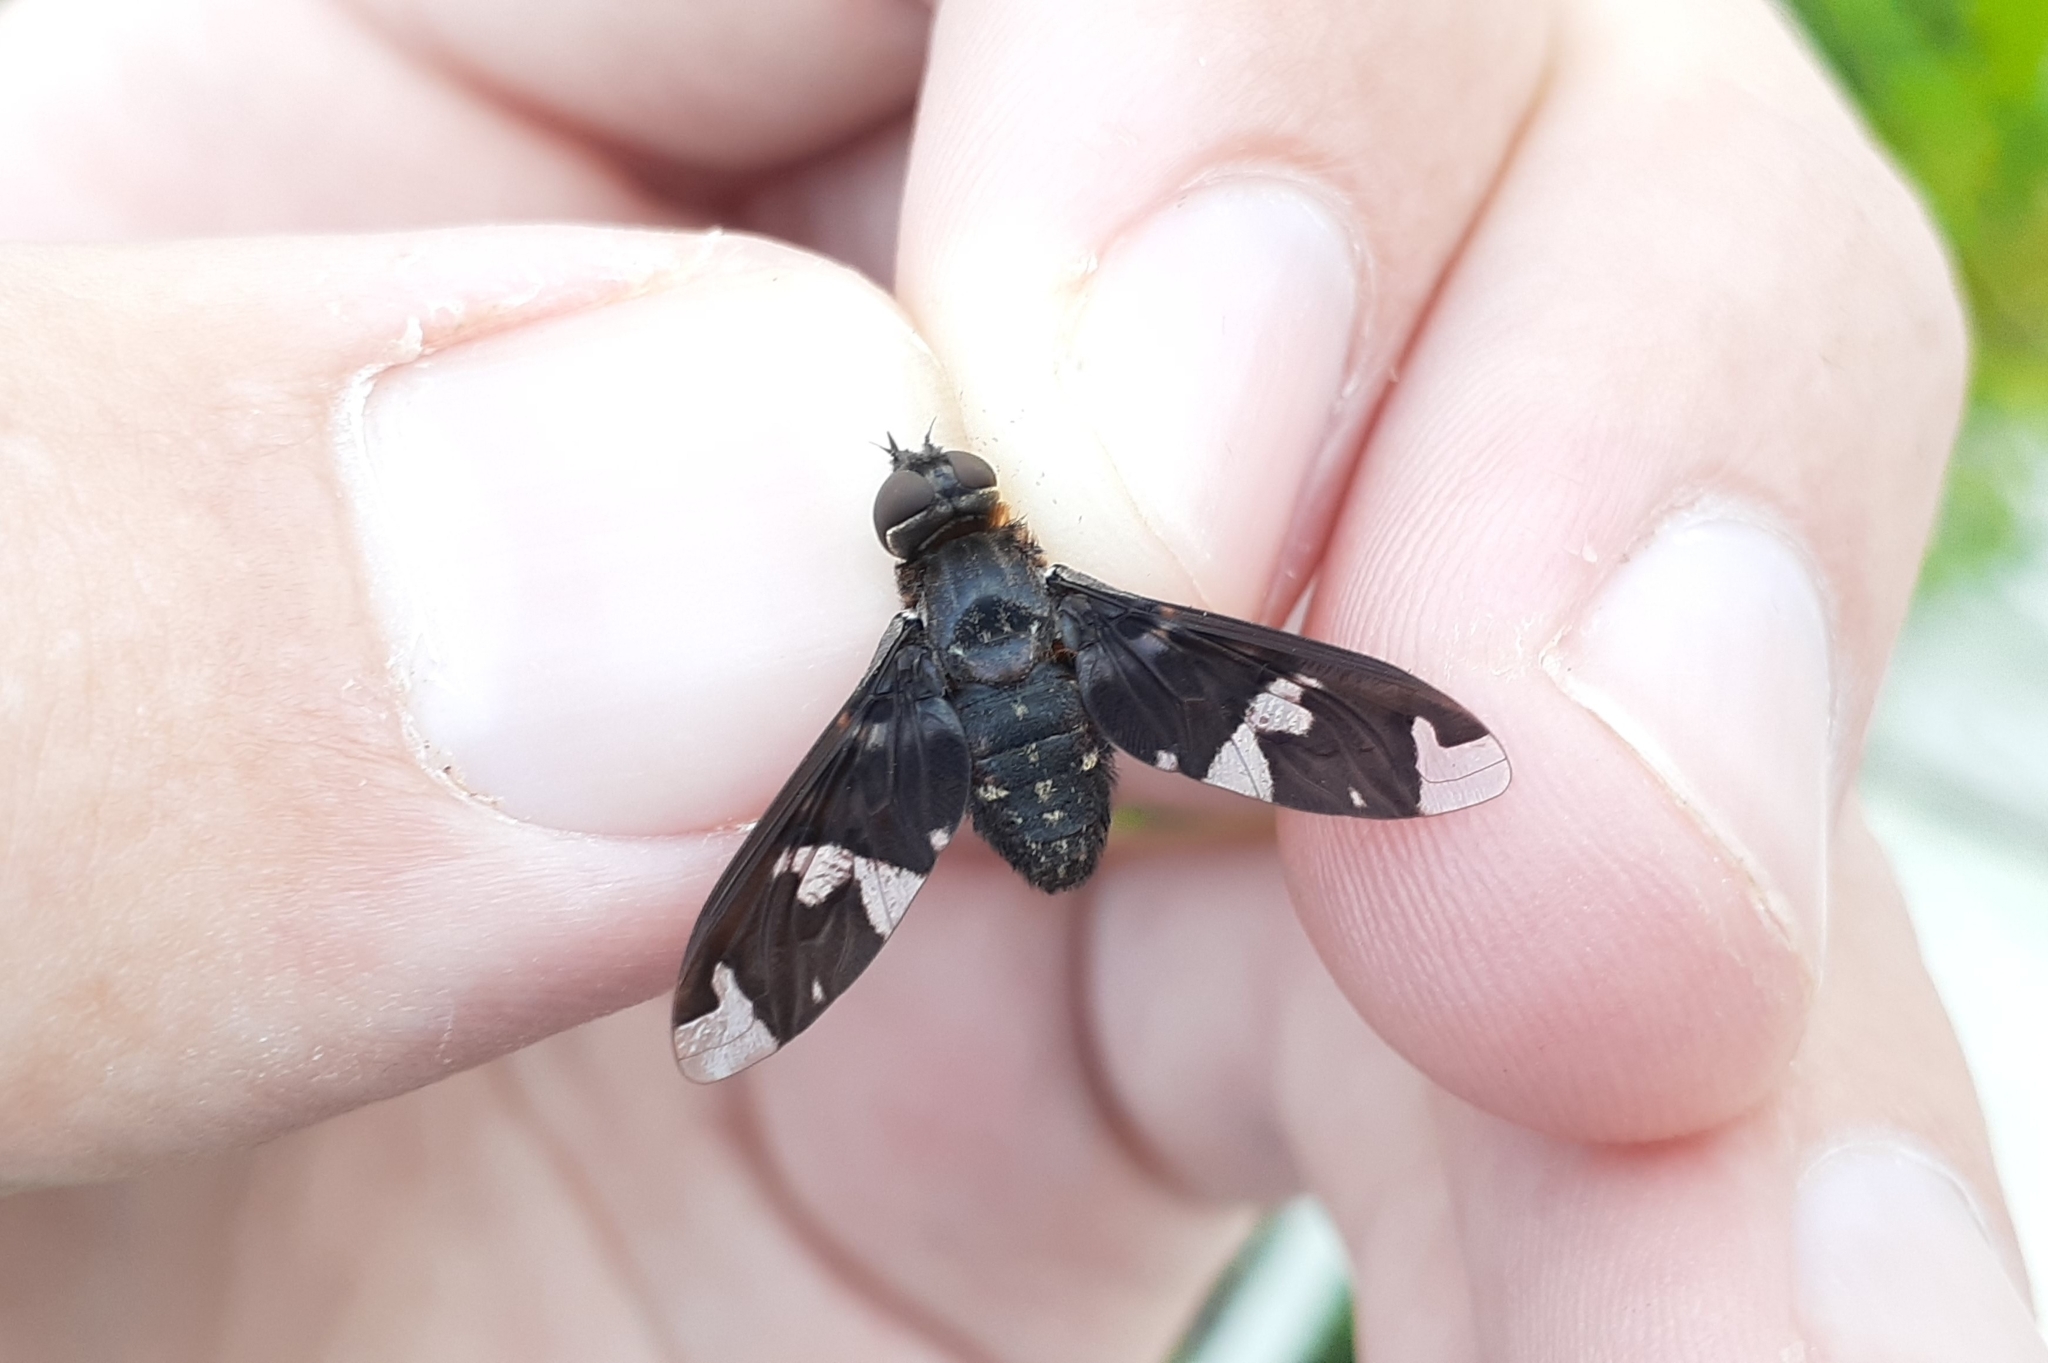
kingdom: Animalia
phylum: Arthropoda
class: Insecta
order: Diptera
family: Bombyliidae
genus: Exoprosopa
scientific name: Exoprosopa decora
